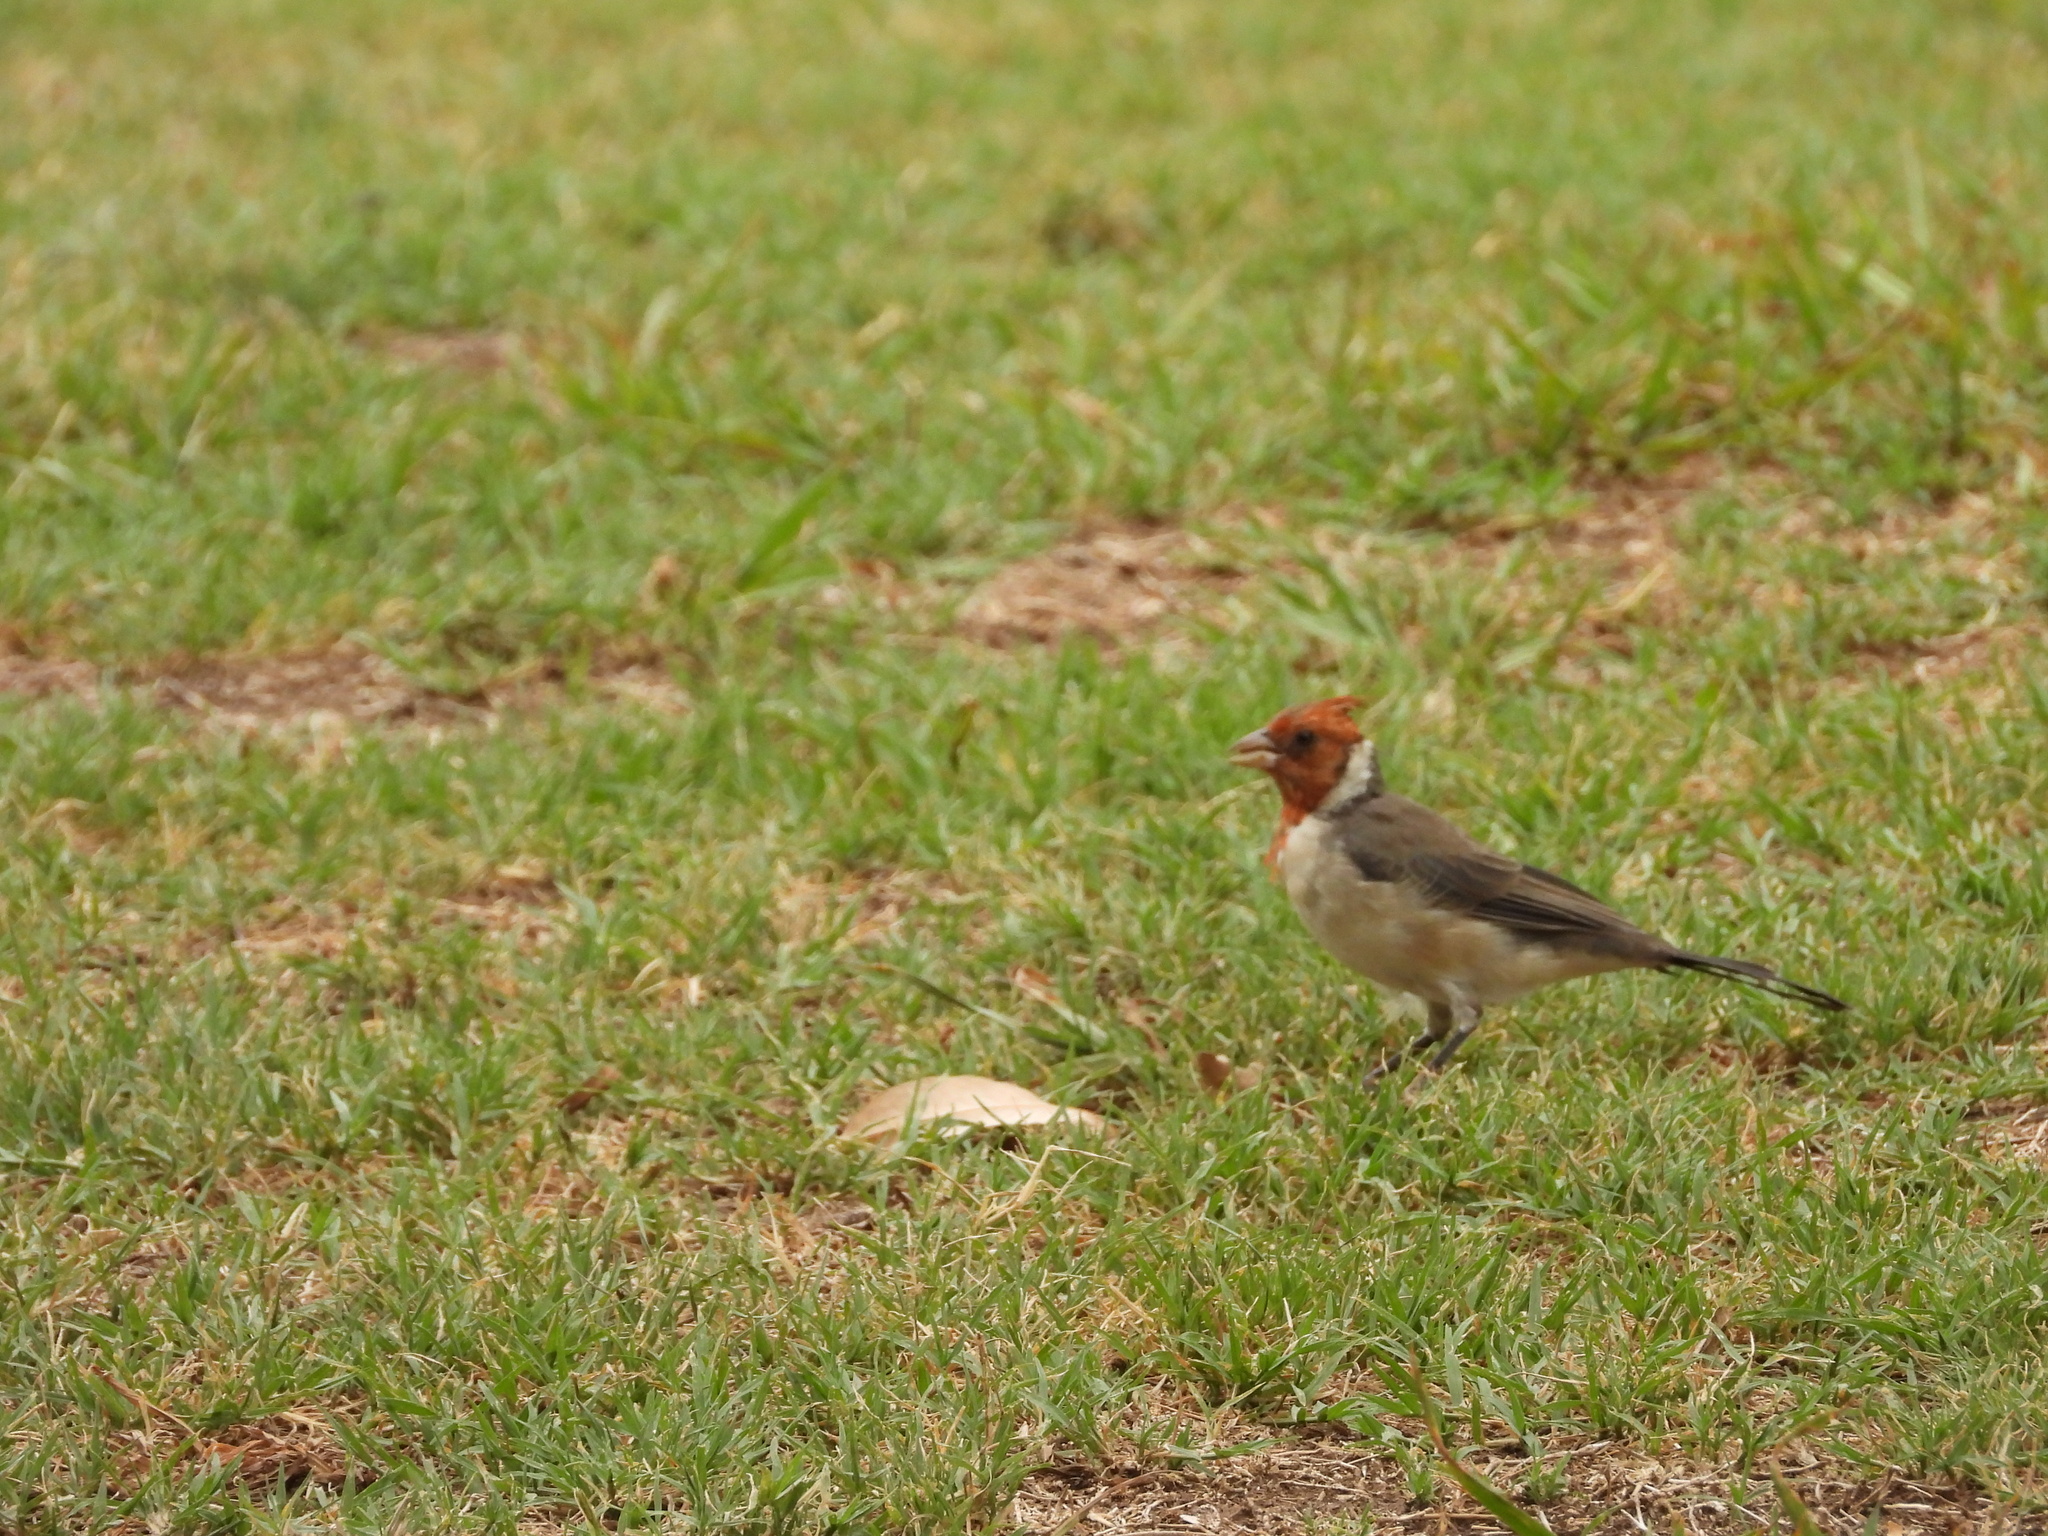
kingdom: Animalia
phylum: Chordata
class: Aves
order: Passeriformes
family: Thraupidae
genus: Paroaria
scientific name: Paroaria coronata
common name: Red-crested cardinal
